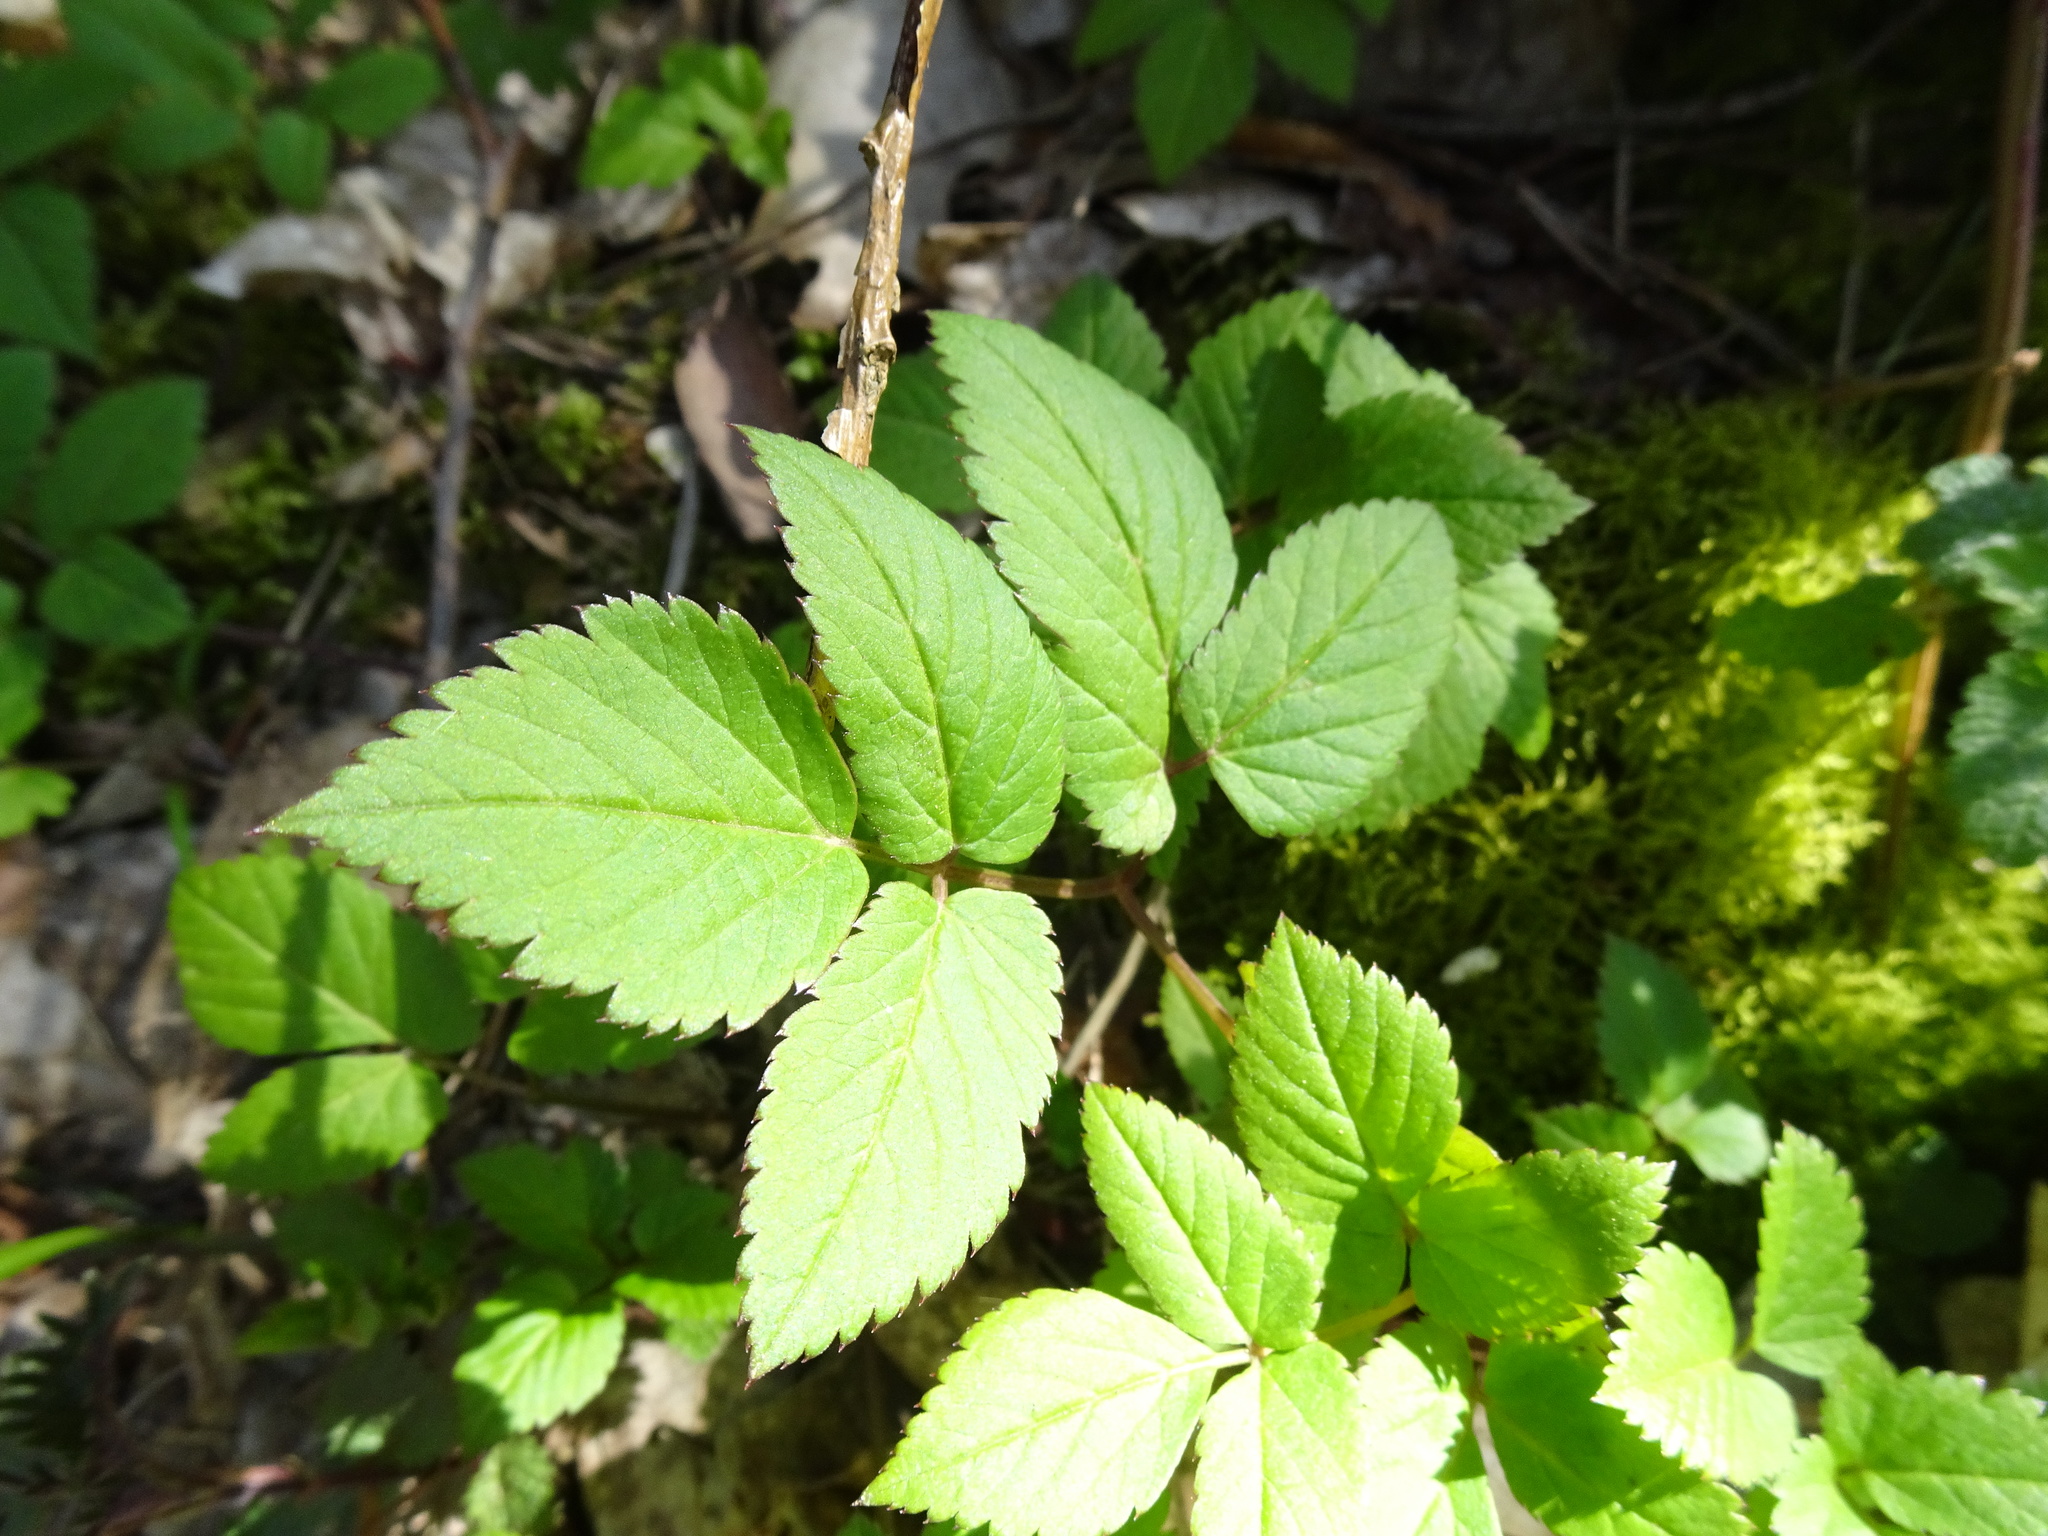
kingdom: Plantae
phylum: Tracheophyta
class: Magnoliopsida
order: Apiales
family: Apiaceae
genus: Aegopodium
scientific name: Aegopodium podagraria
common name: Ground-elder
